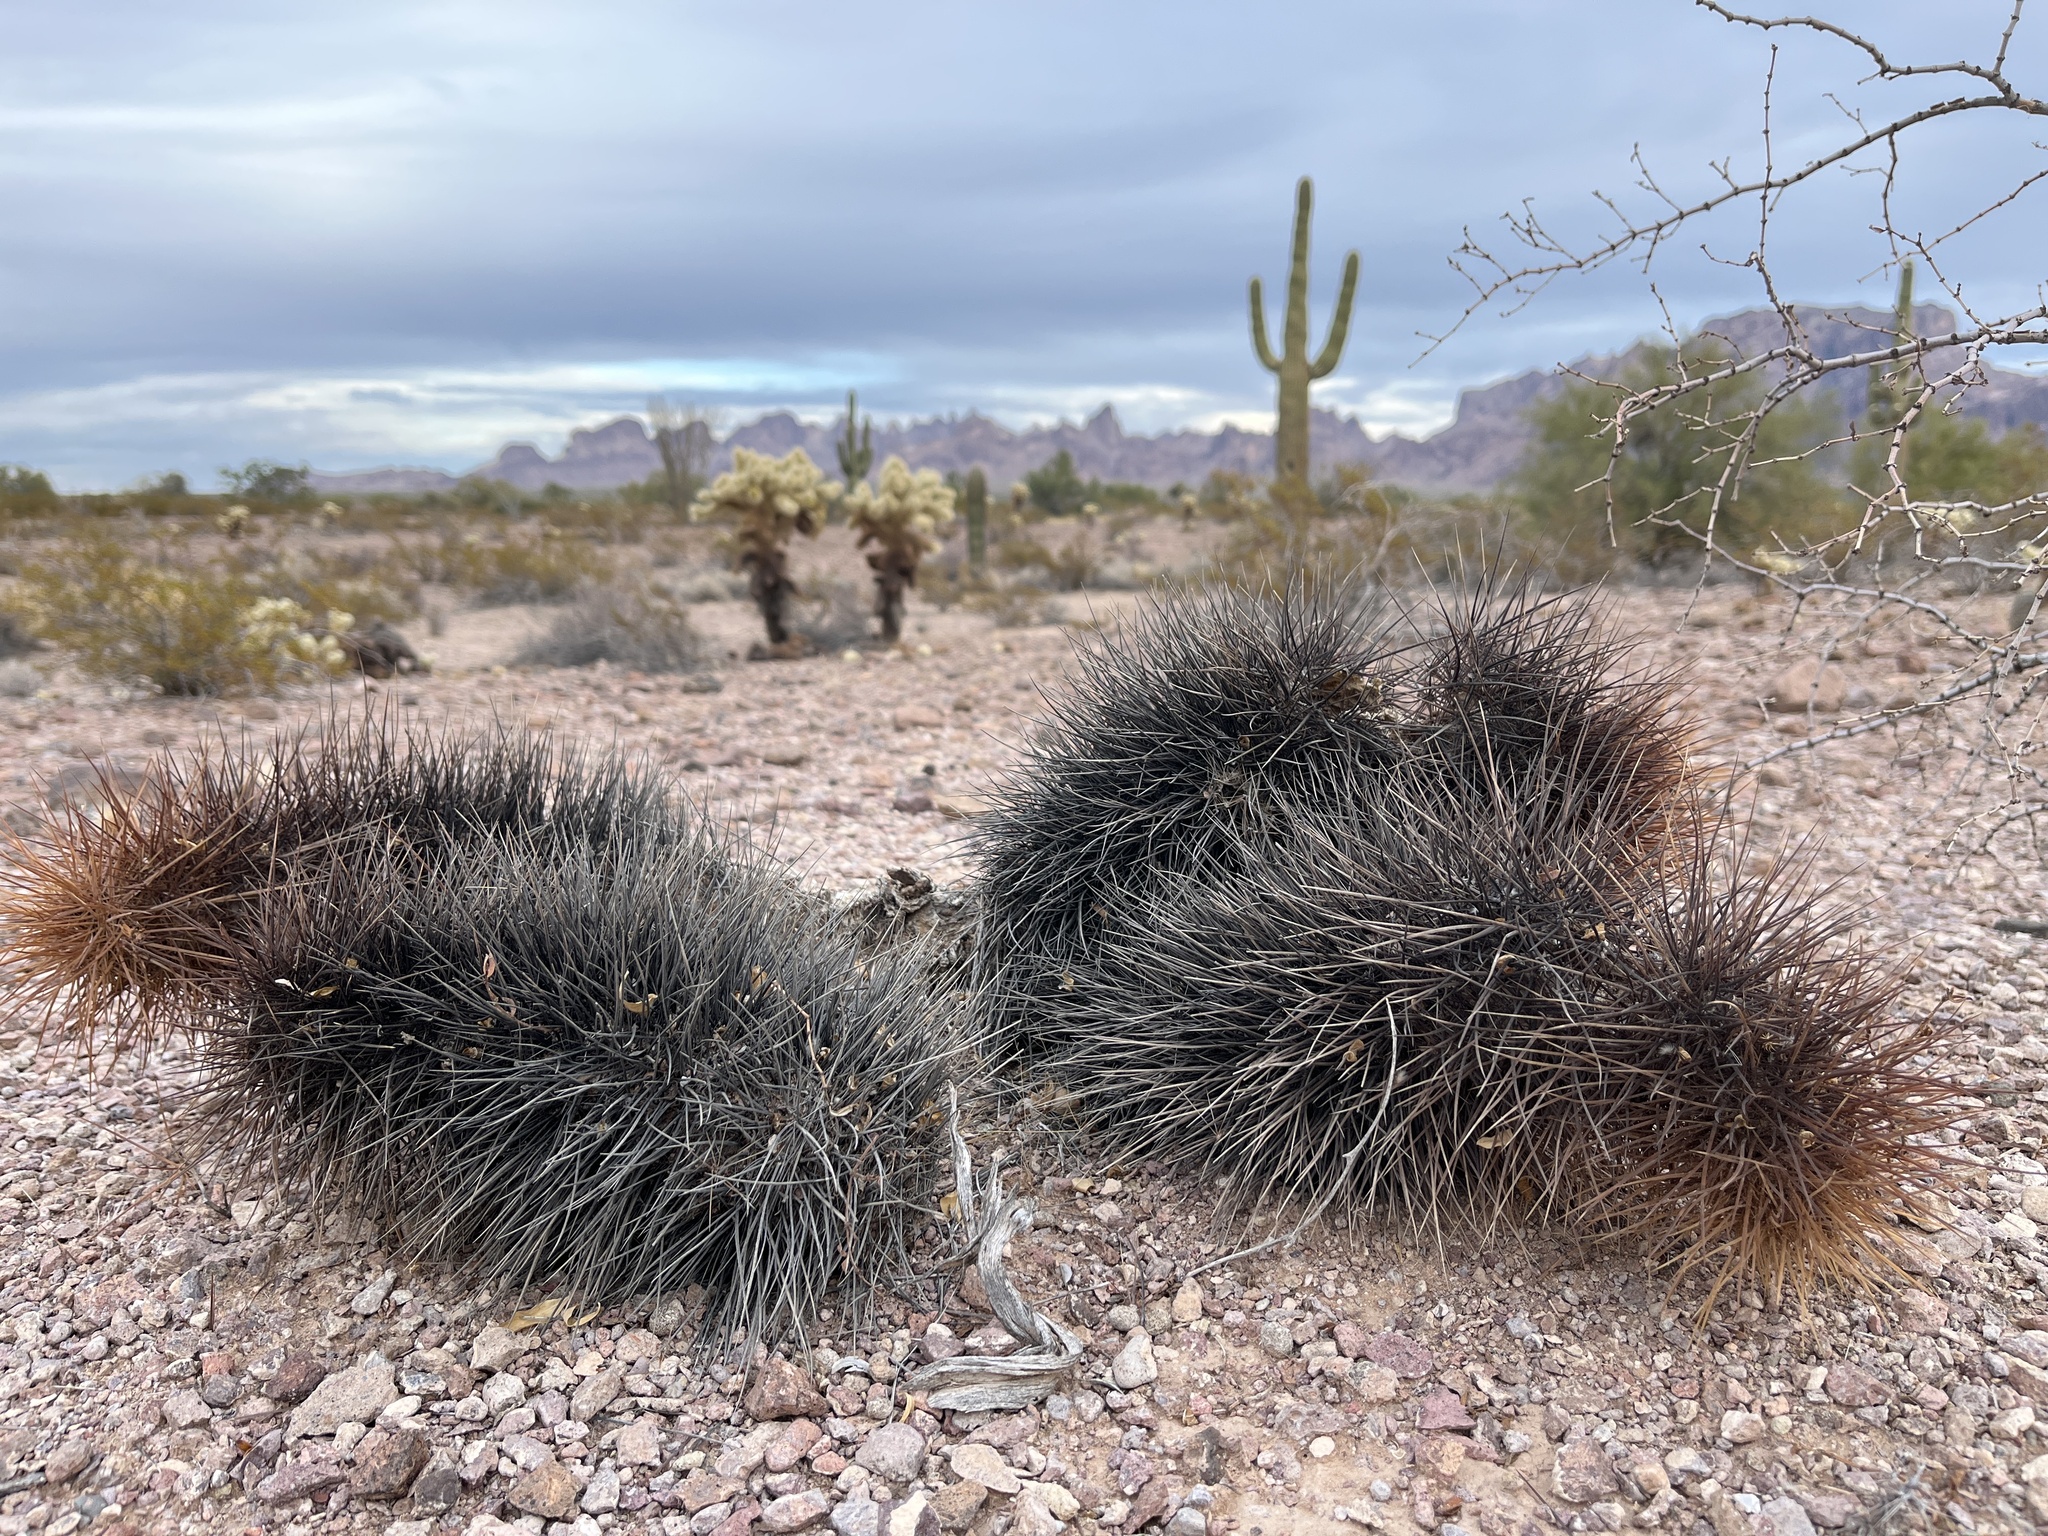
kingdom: Plantae
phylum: Tracheophyta
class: Magnoliopsida
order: Caryophyllales
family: Cactaceae
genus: Echinocereus
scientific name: Echinocereus engelmannii
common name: Engelmann's hedgehog cactus
